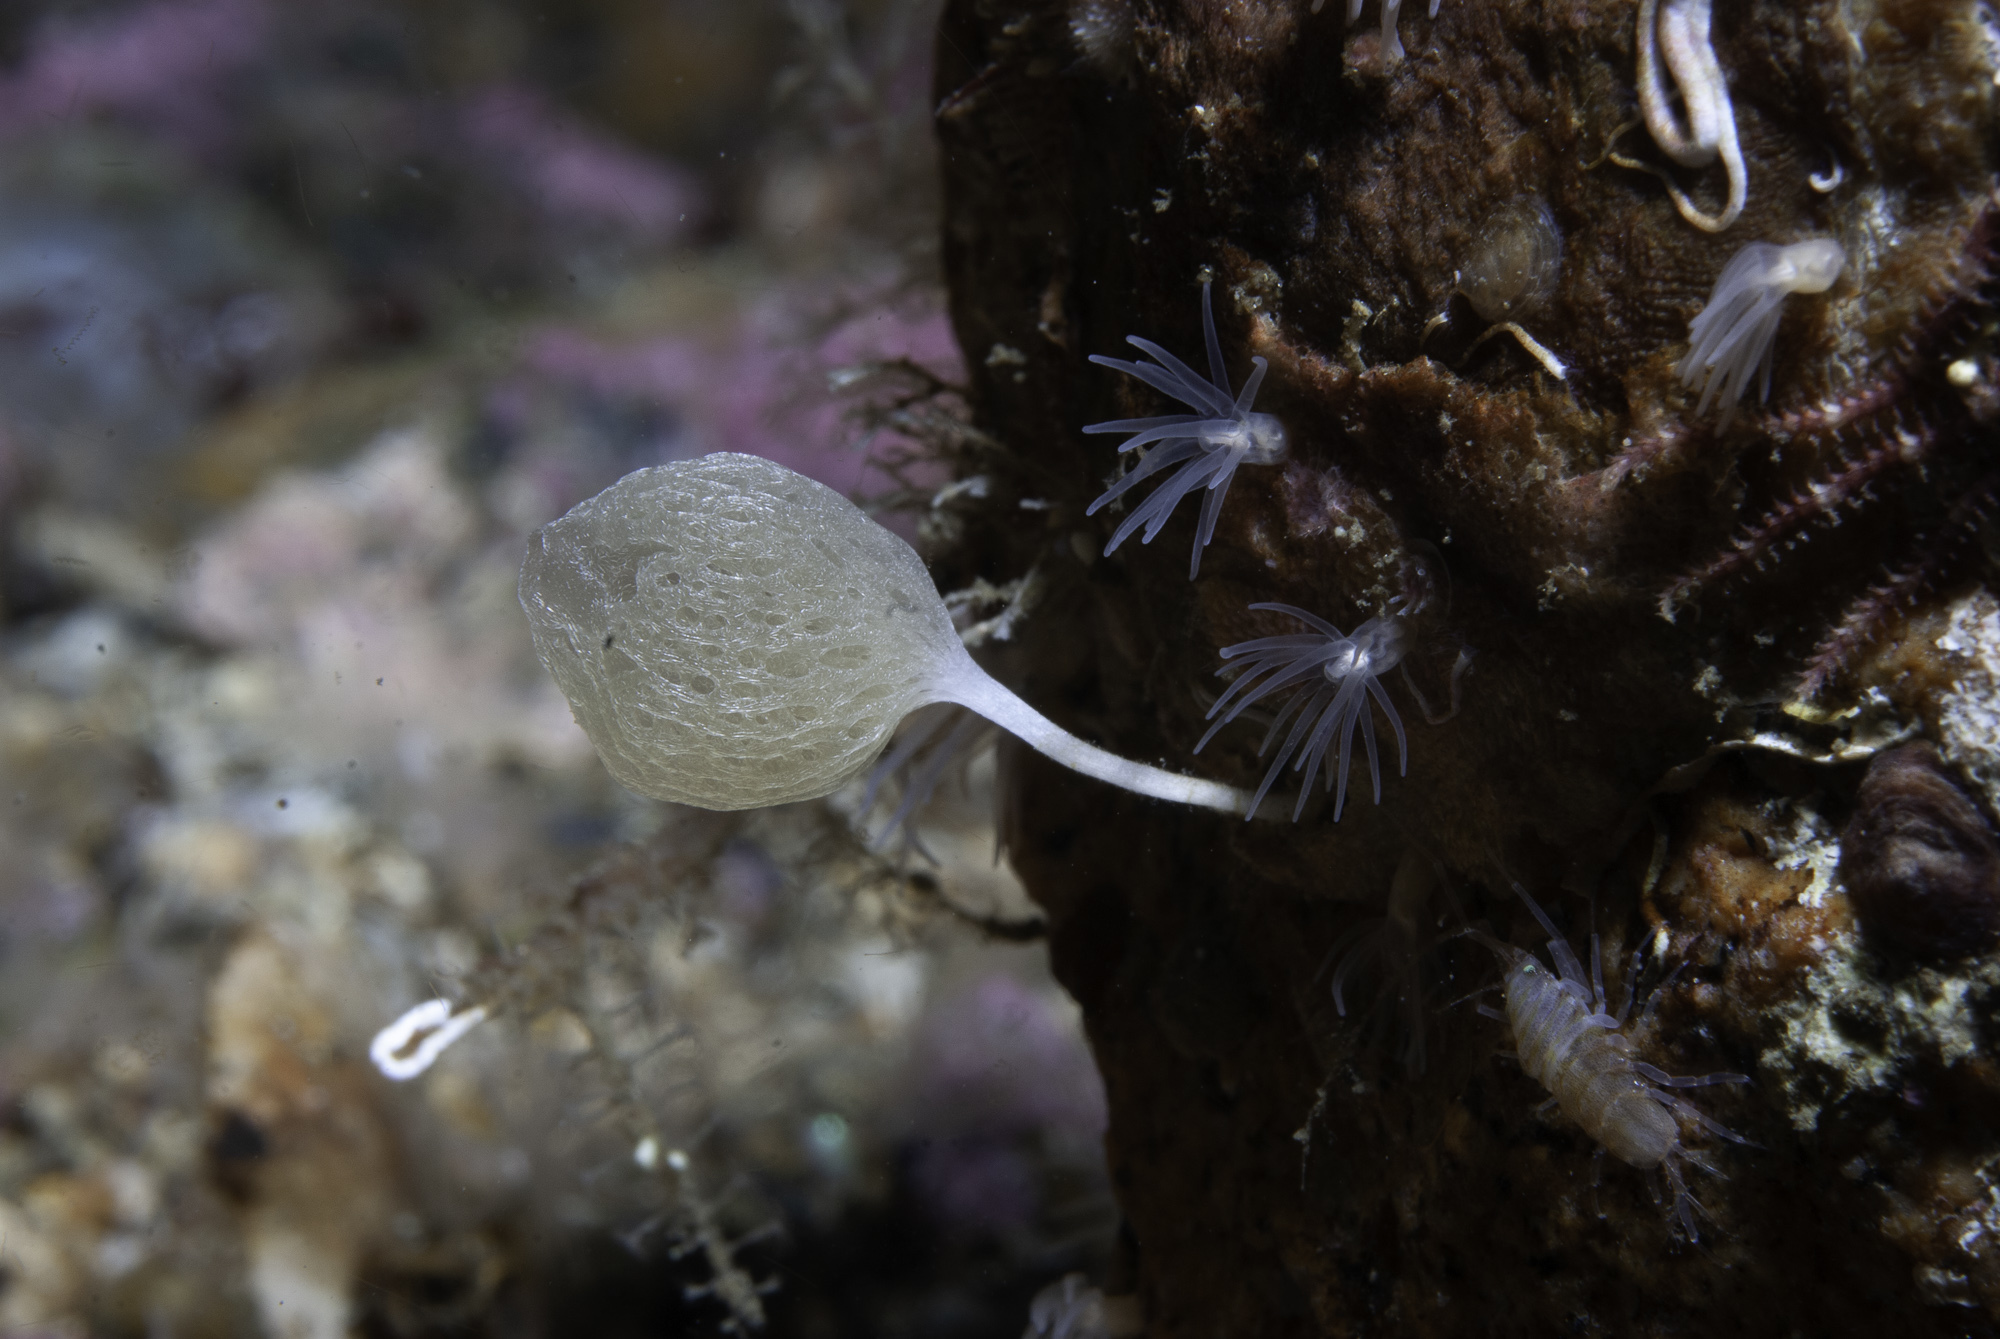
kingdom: Animalia
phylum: Porifera
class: Calcarea
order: Clathrinida
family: Clathrinidae
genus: Clathrina
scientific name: Clathrina lacunosa
